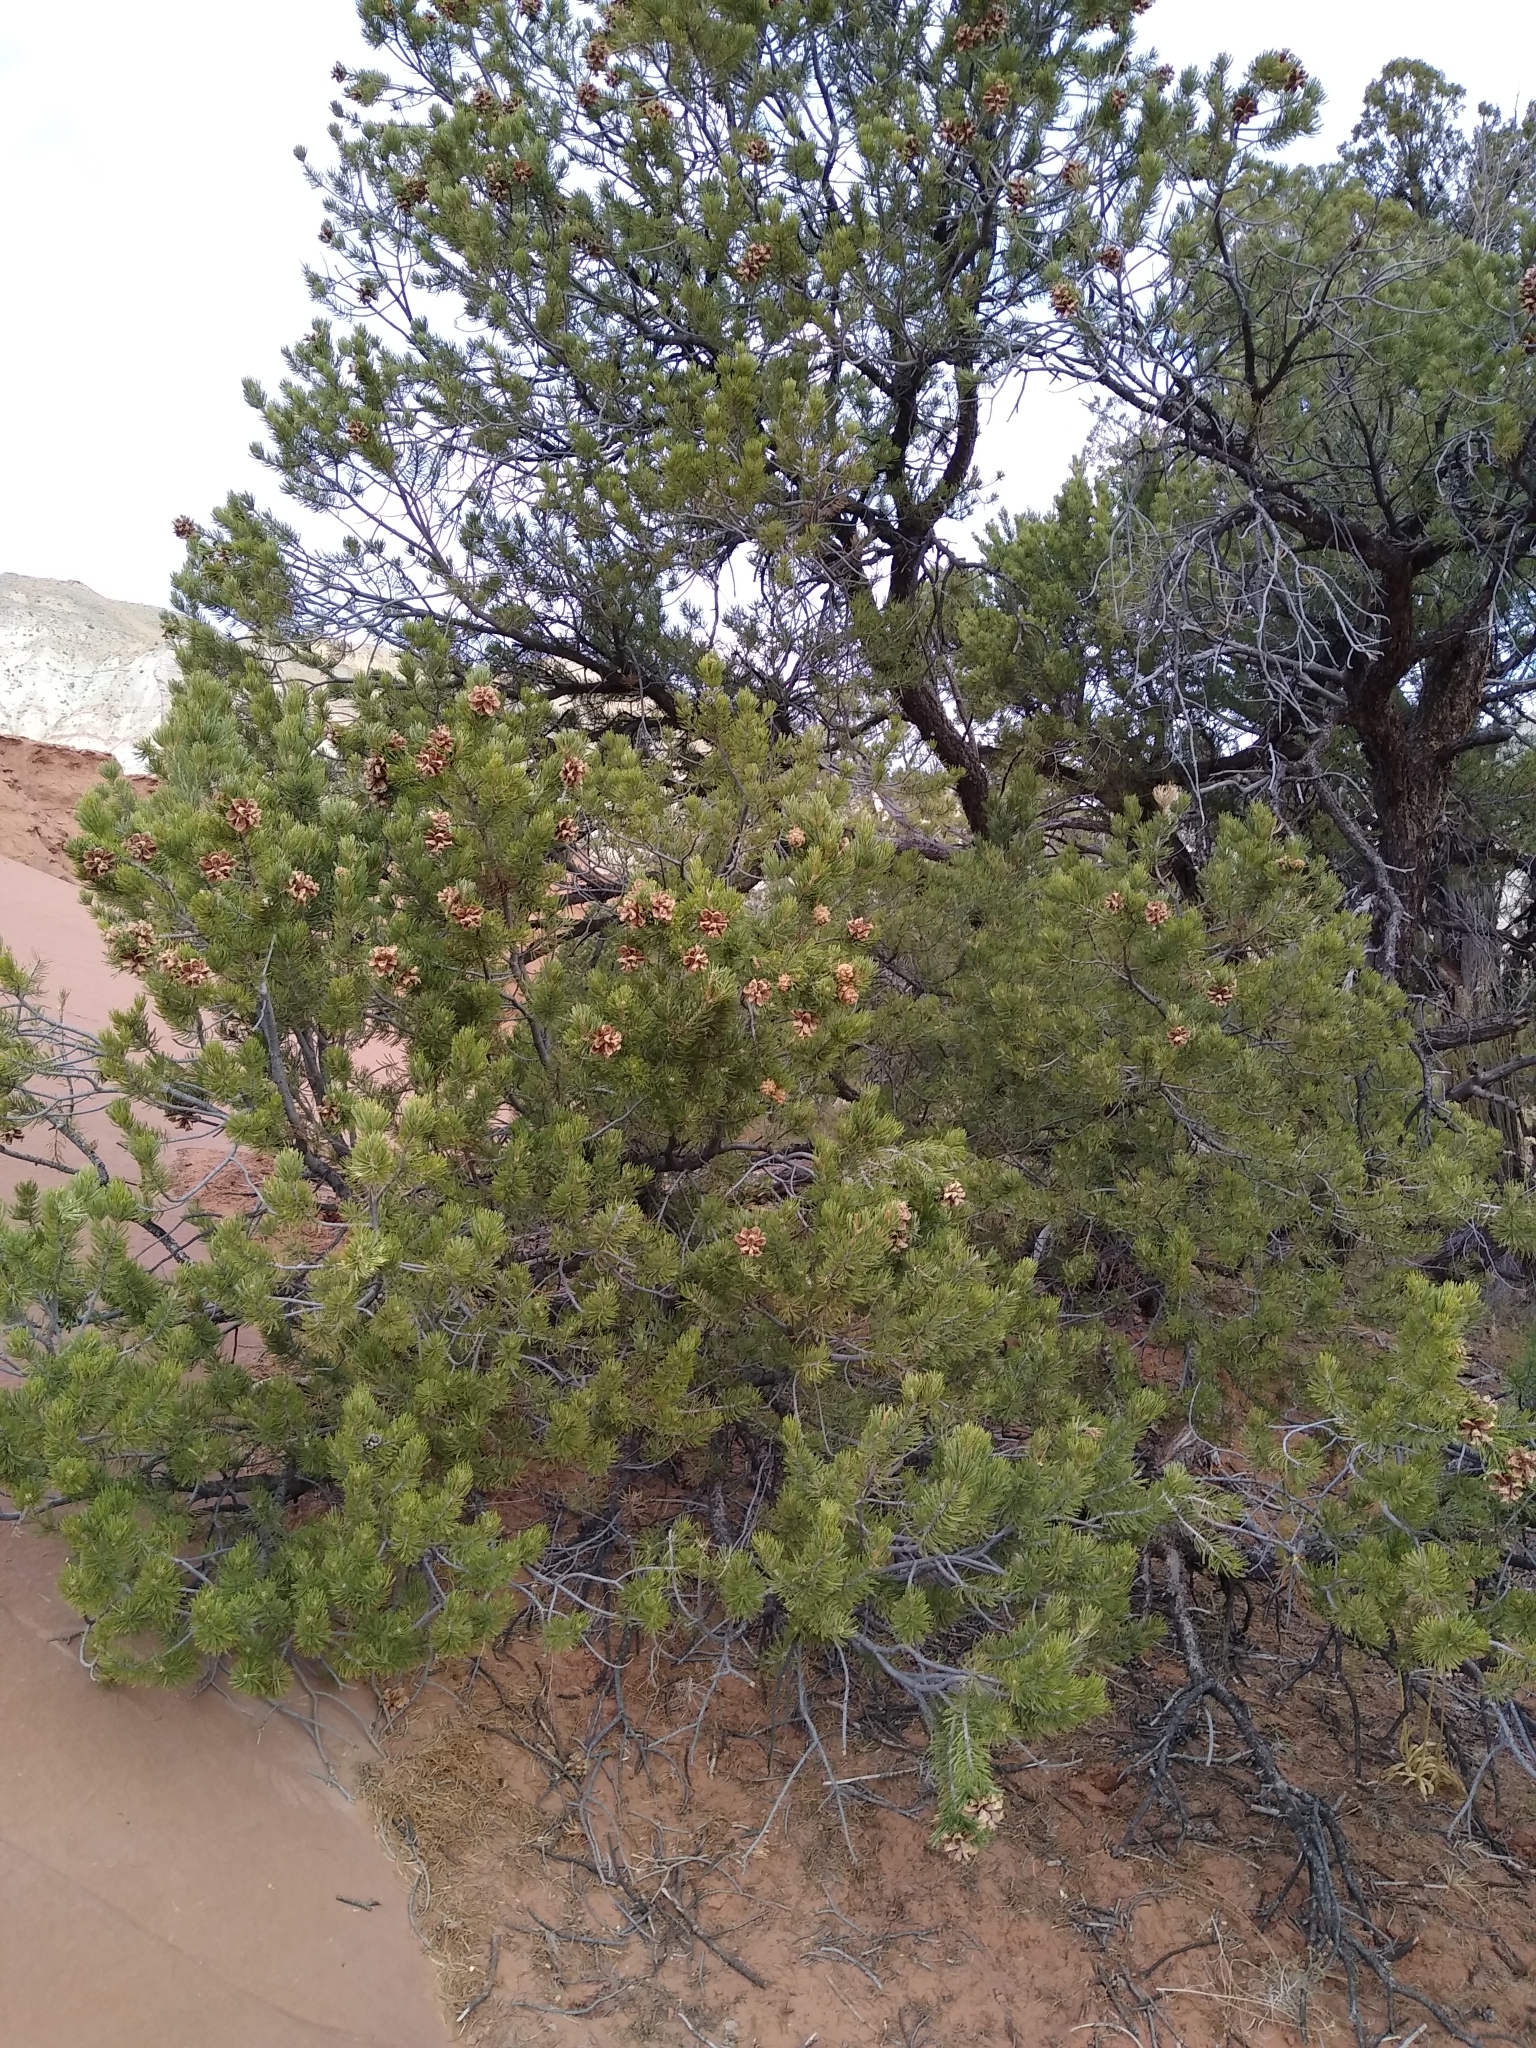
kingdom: Plantae
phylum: Tracheophyta
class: Pinopsida
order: Pinales
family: Pinaceae
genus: Pinus
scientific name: Pinus edulis
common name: Colorado pinyon
